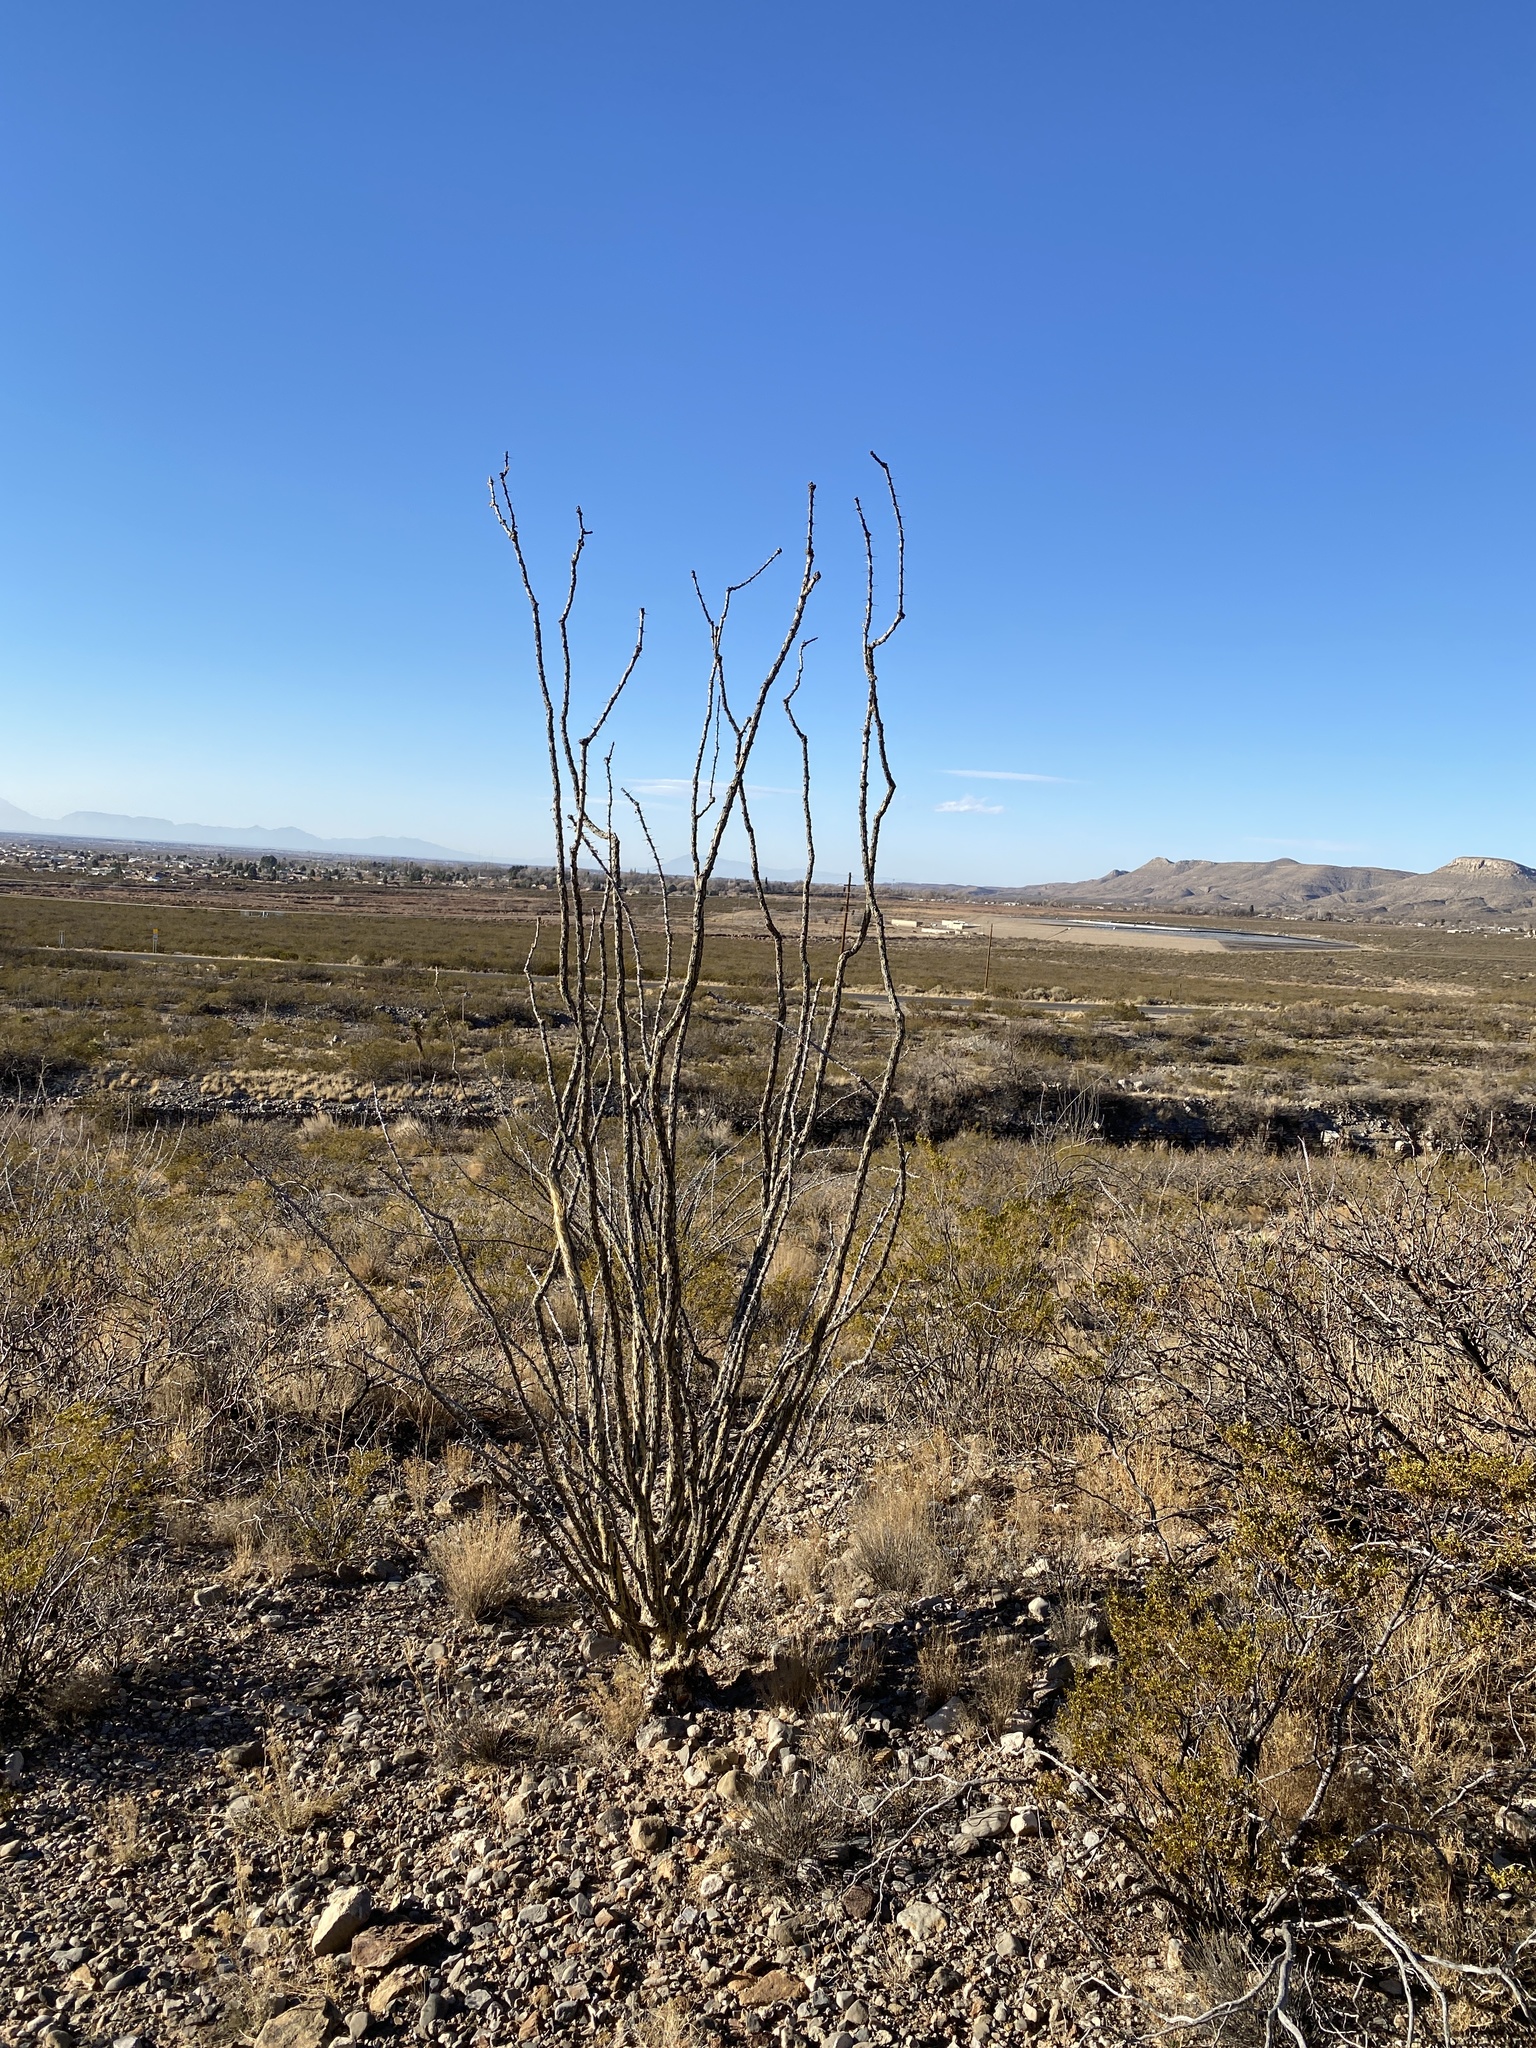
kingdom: Plantae
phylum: Tracheophyta
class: Magnoliopsida
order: Ericales
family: Fouquieriaceae
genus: Fouquieria
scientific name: Fouquieria splendens
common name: Vine-cactus
